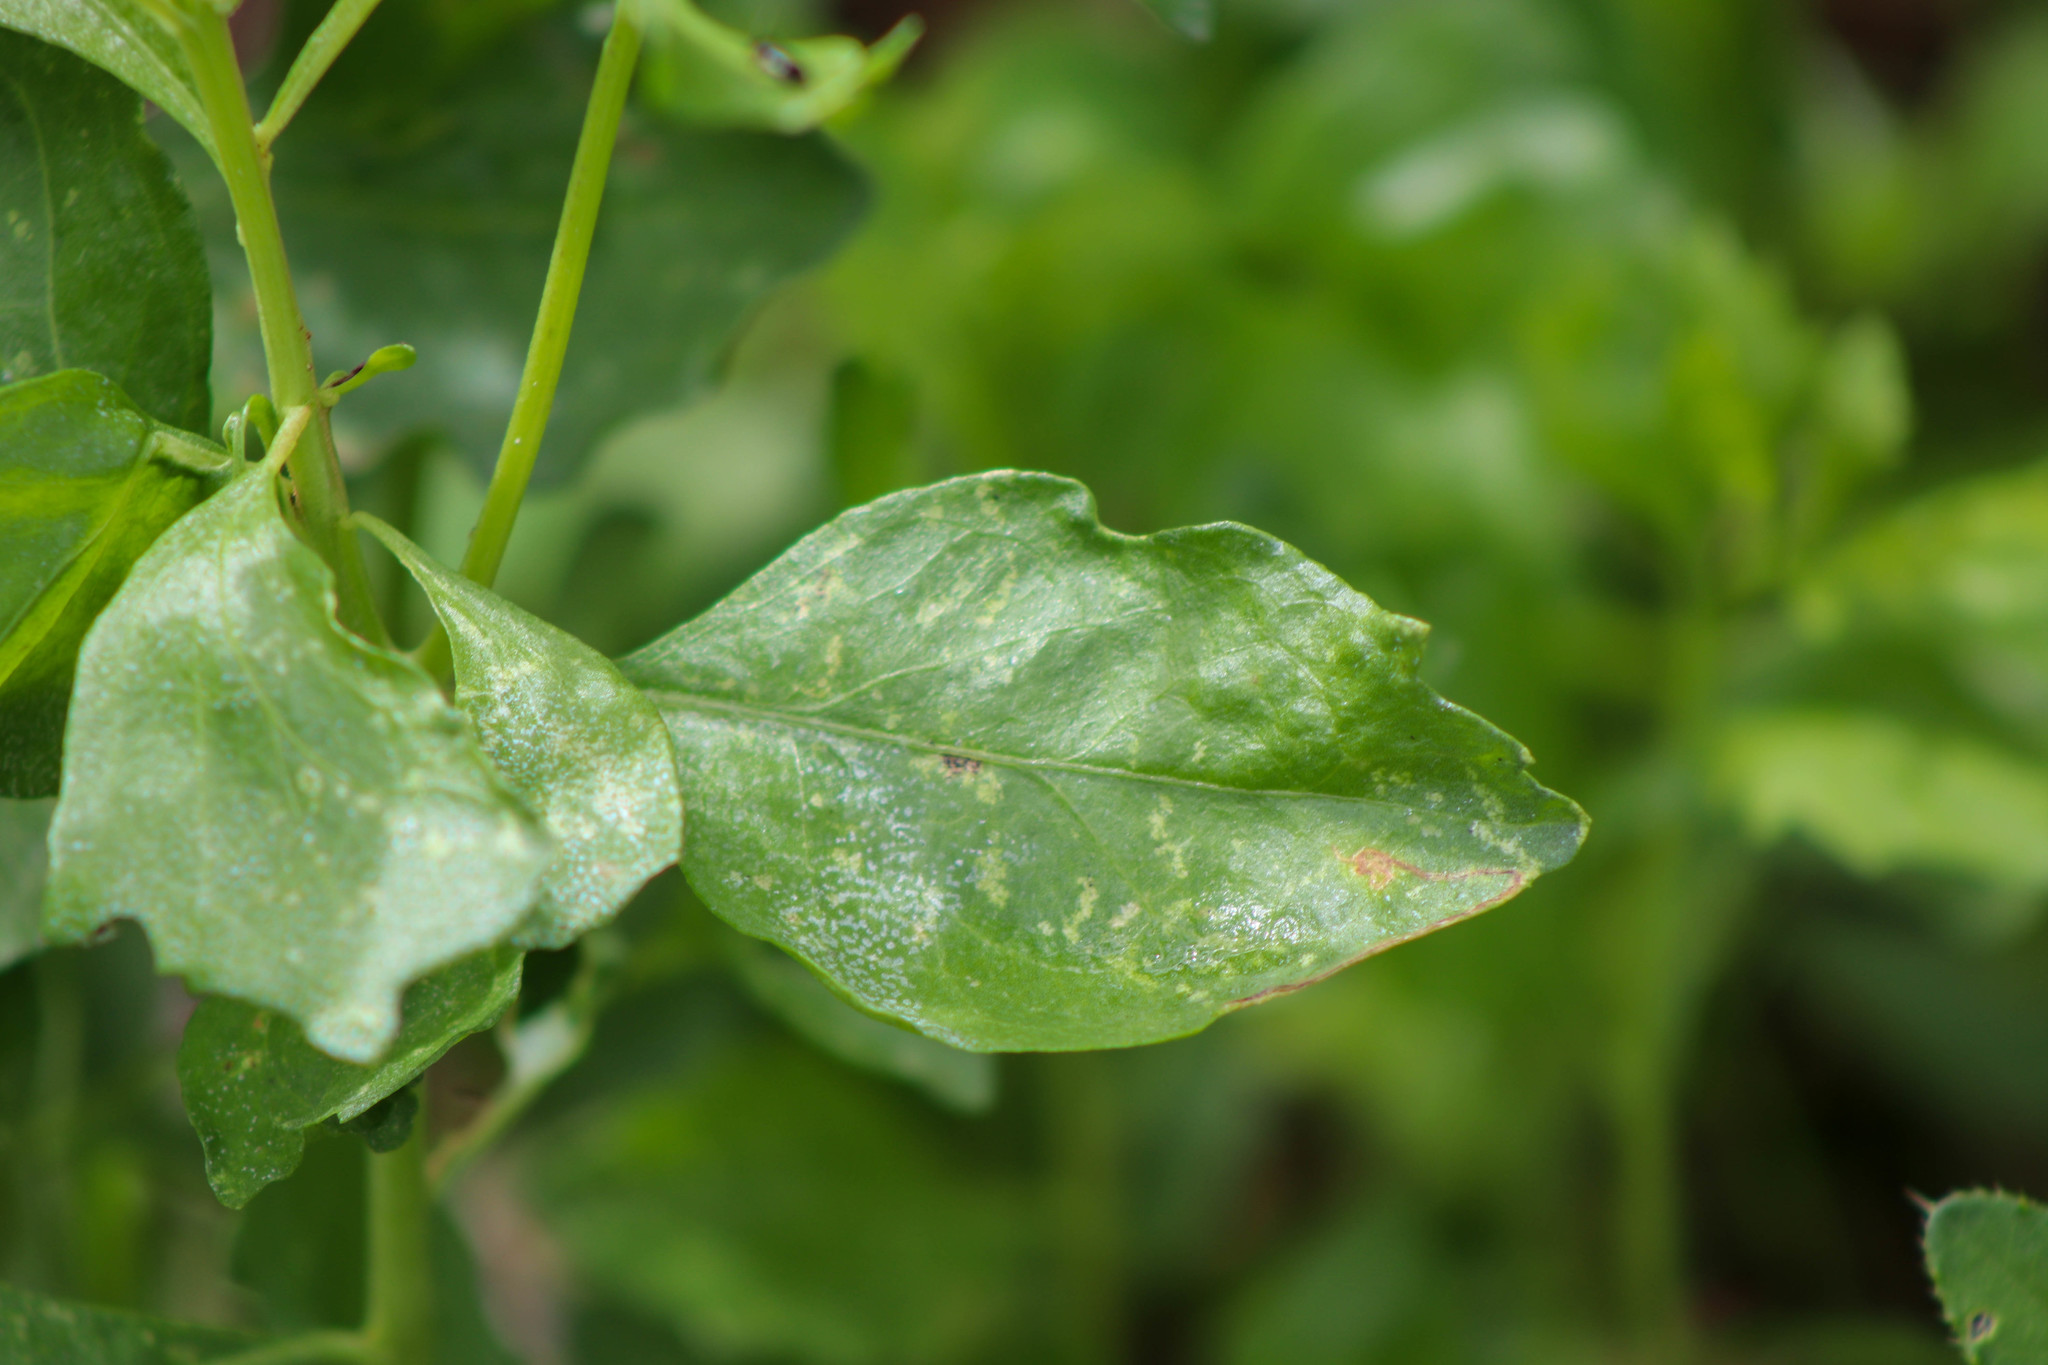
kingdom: Plantae
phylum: Tracheophyta
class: Magnoliopsida
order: Asterales
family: Asteraceae
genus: Baccharis
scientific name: Baccharis halimifolia
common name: Eastern baccharis
